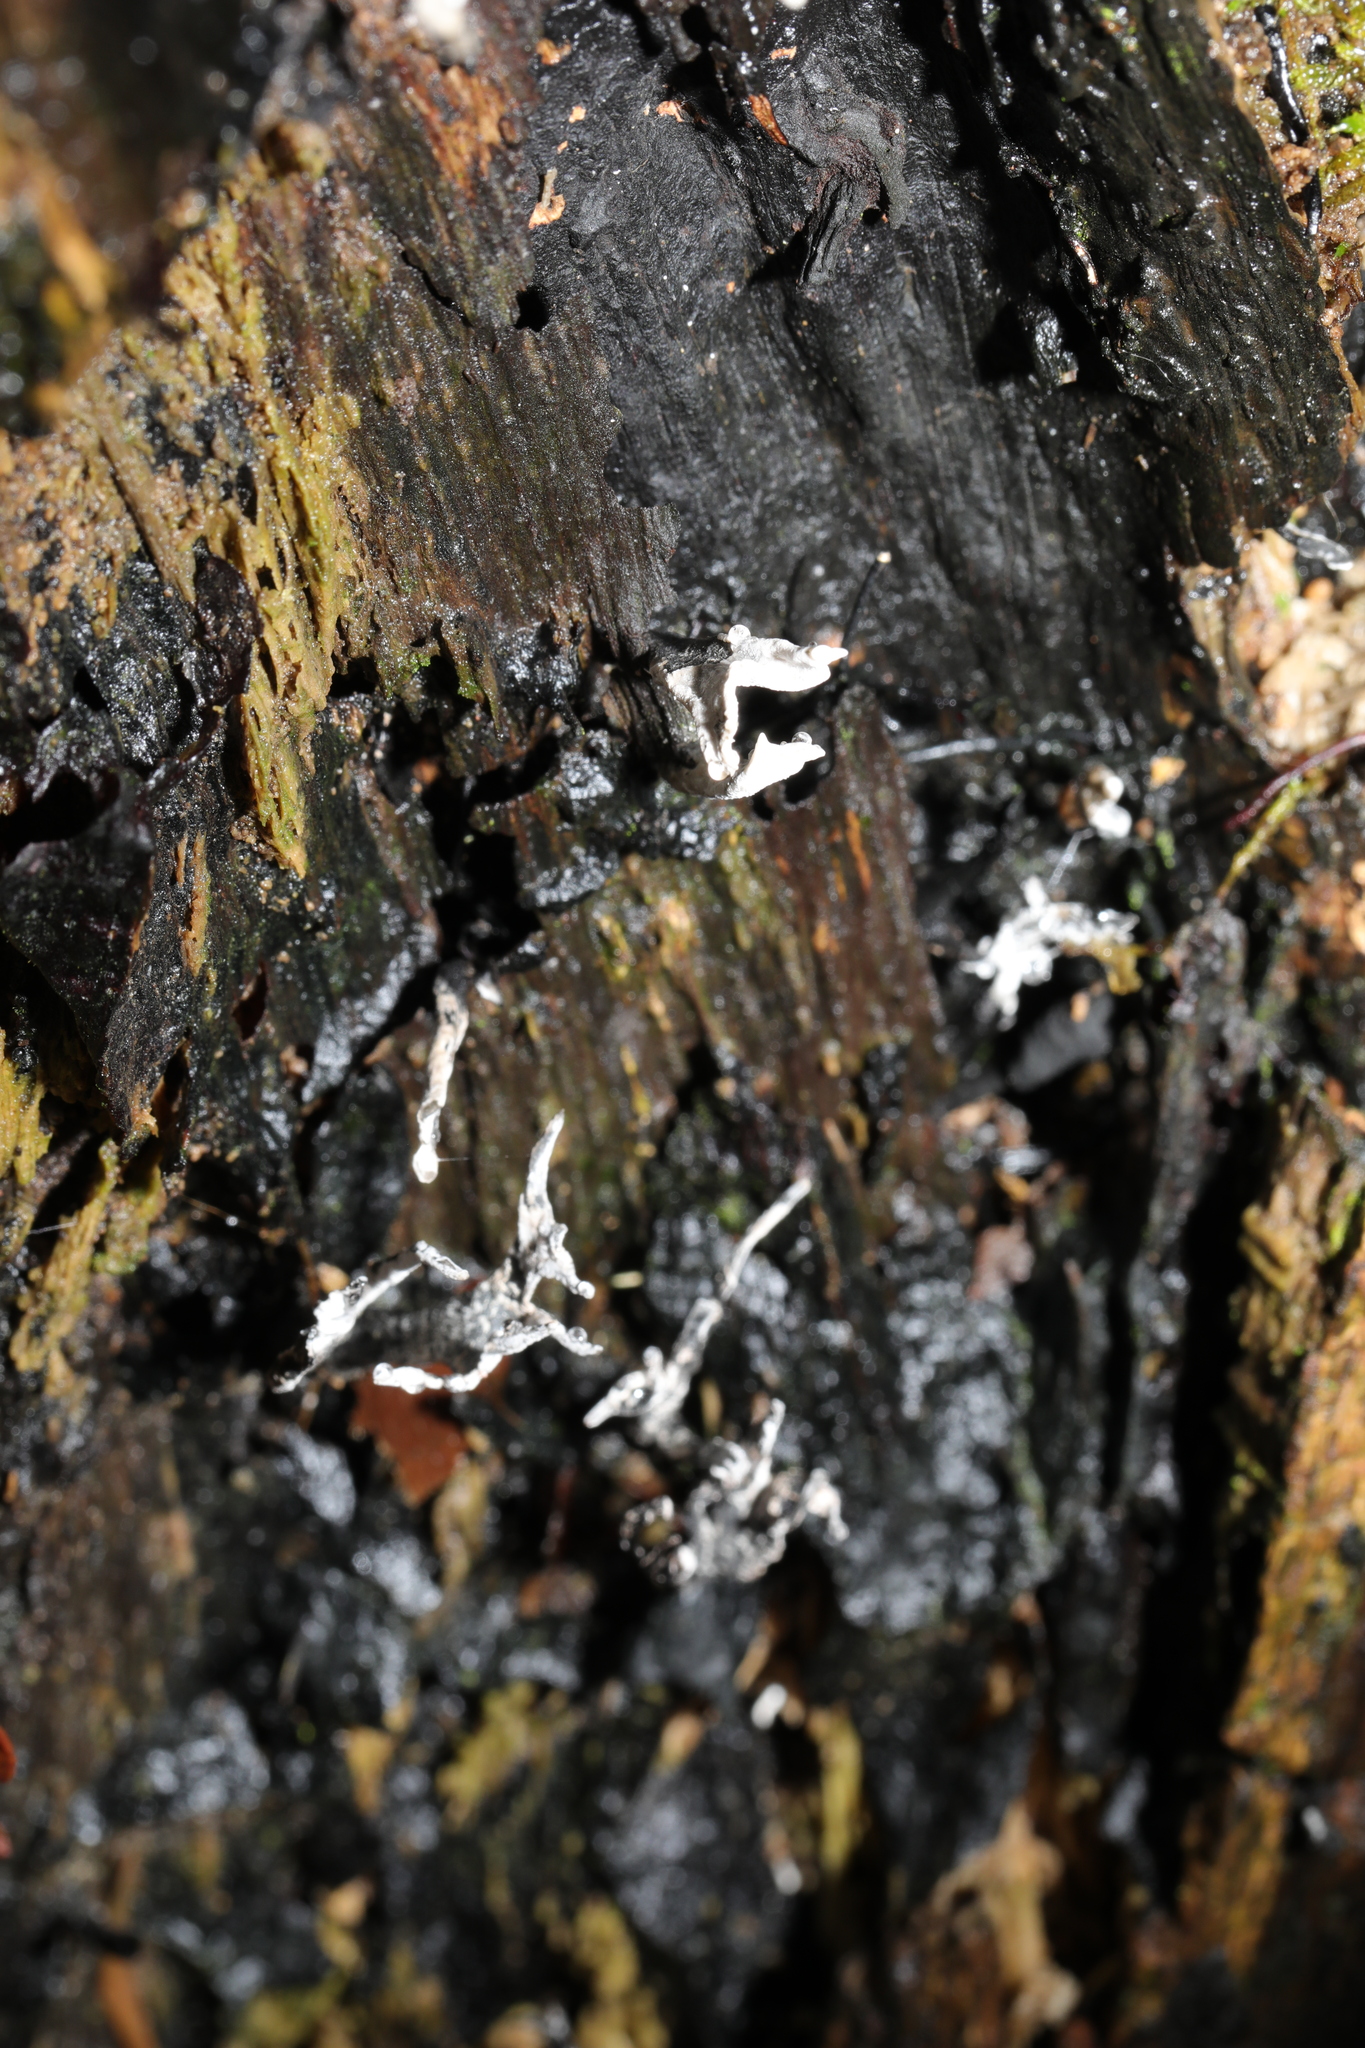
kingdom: Fungi
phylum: Ascomycota
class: Sordariomycetes
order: Xylariales
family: Xylariaceae
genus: Xylaria
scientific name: Xylaria hypoxylon
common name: Candle-snuff fungus
